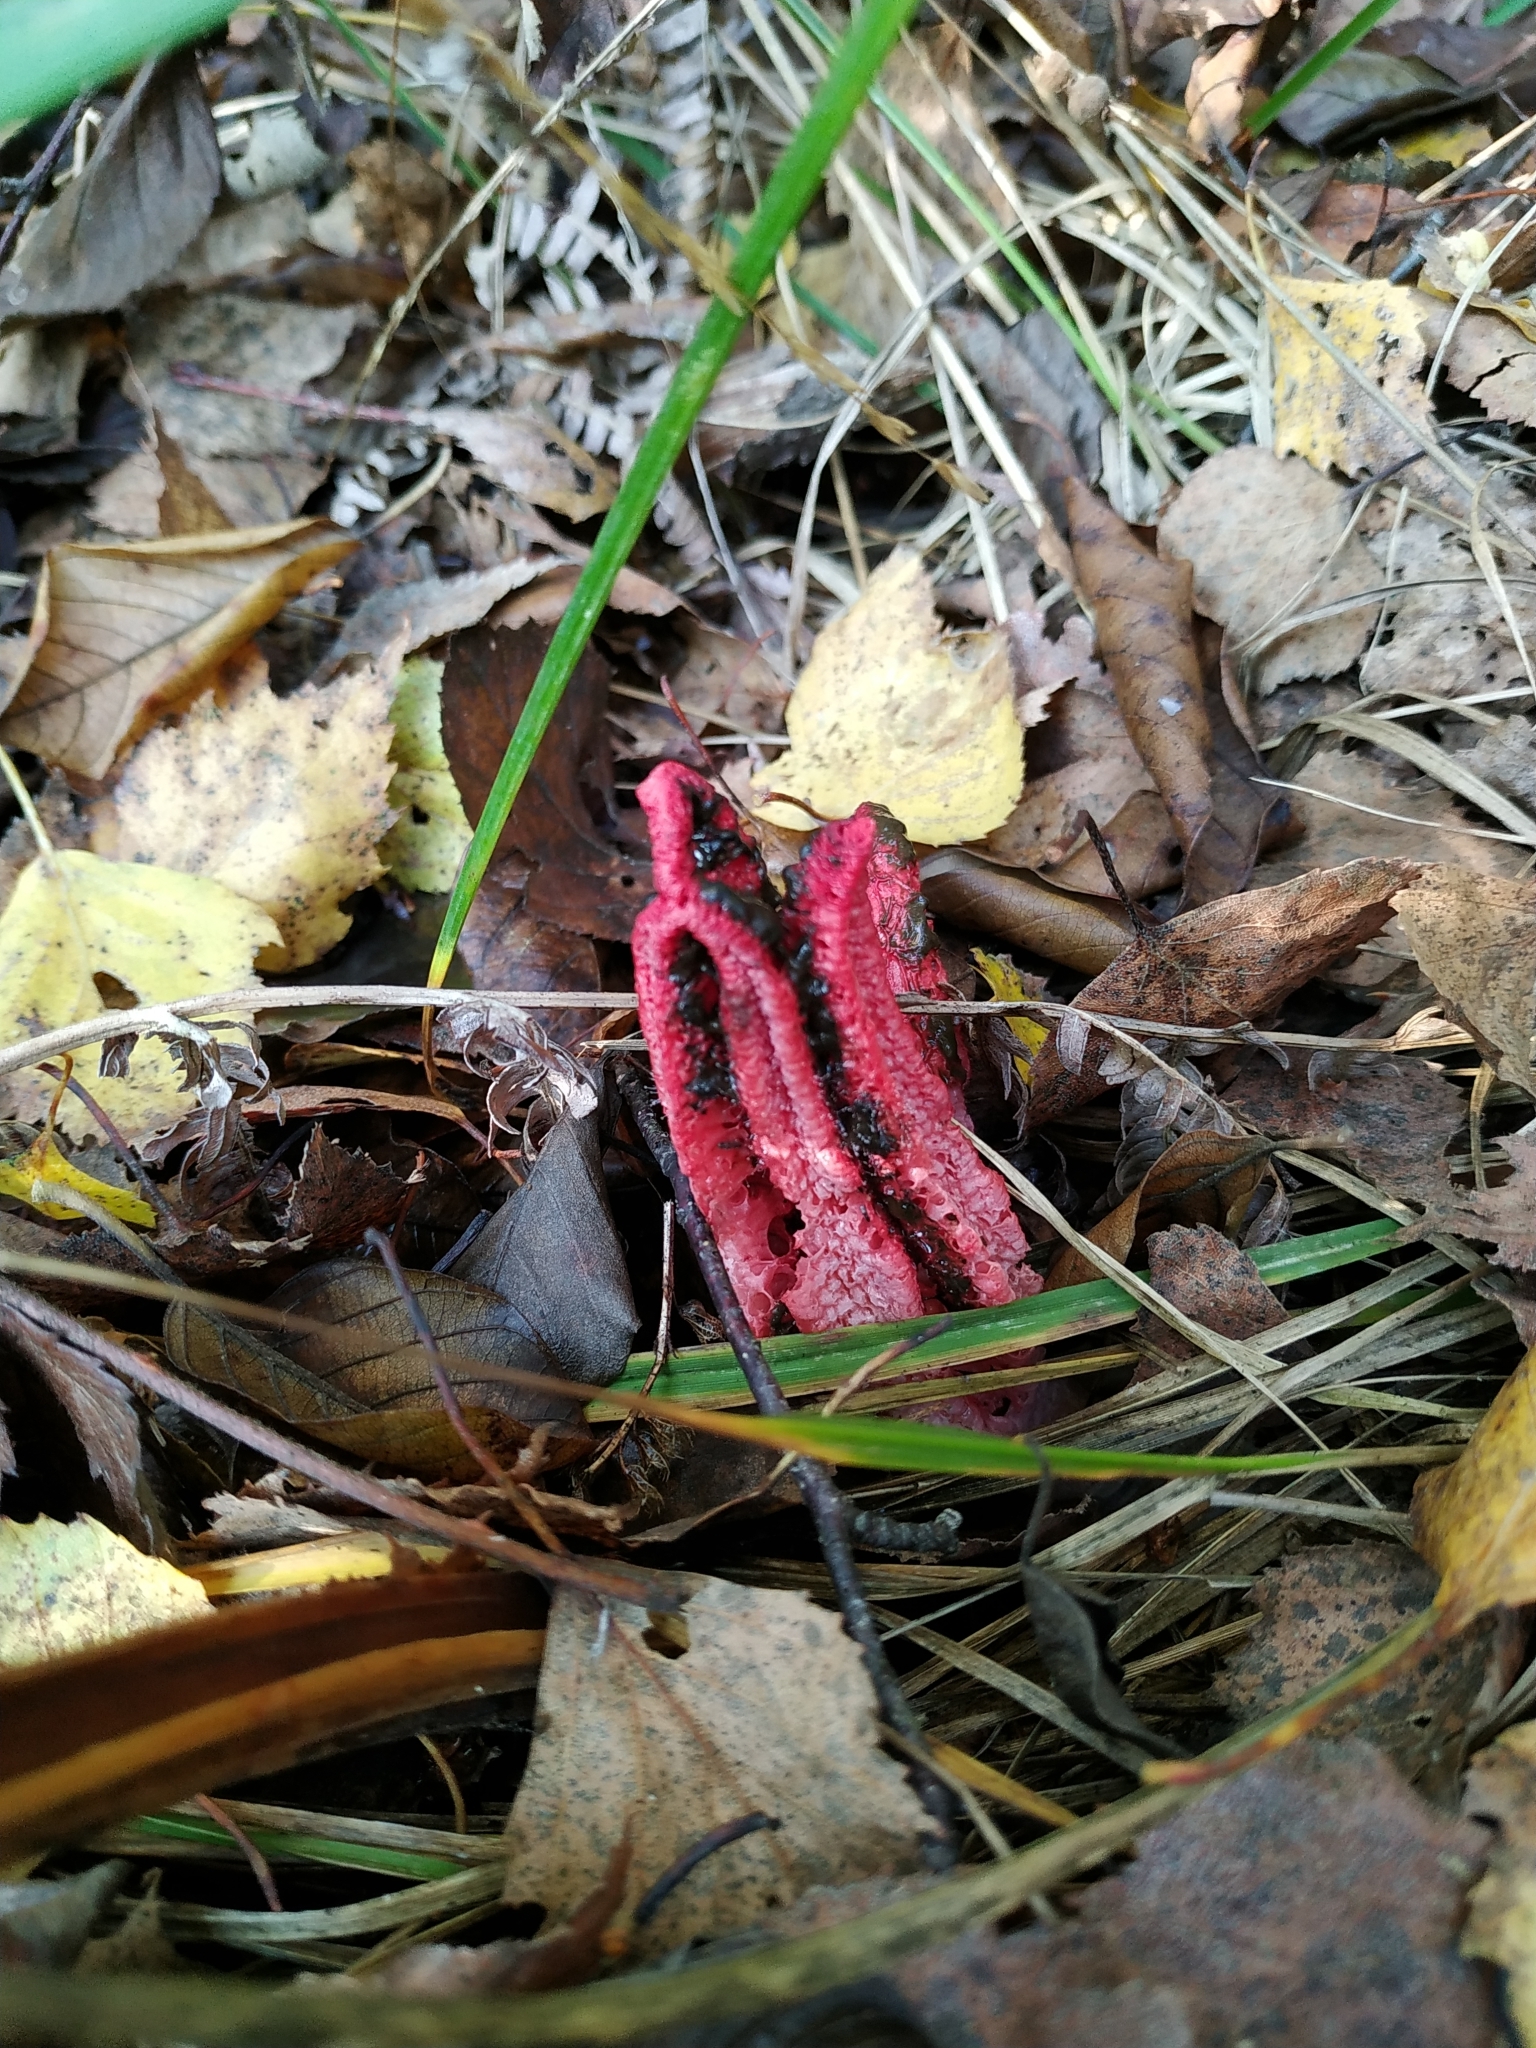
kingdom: Fungi
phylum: Basidiomycota
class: Agaricomycetes
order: Phallales
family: Phallaceae
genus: Clathrus
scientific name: Clathrus archeri
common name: Devil's fingers
